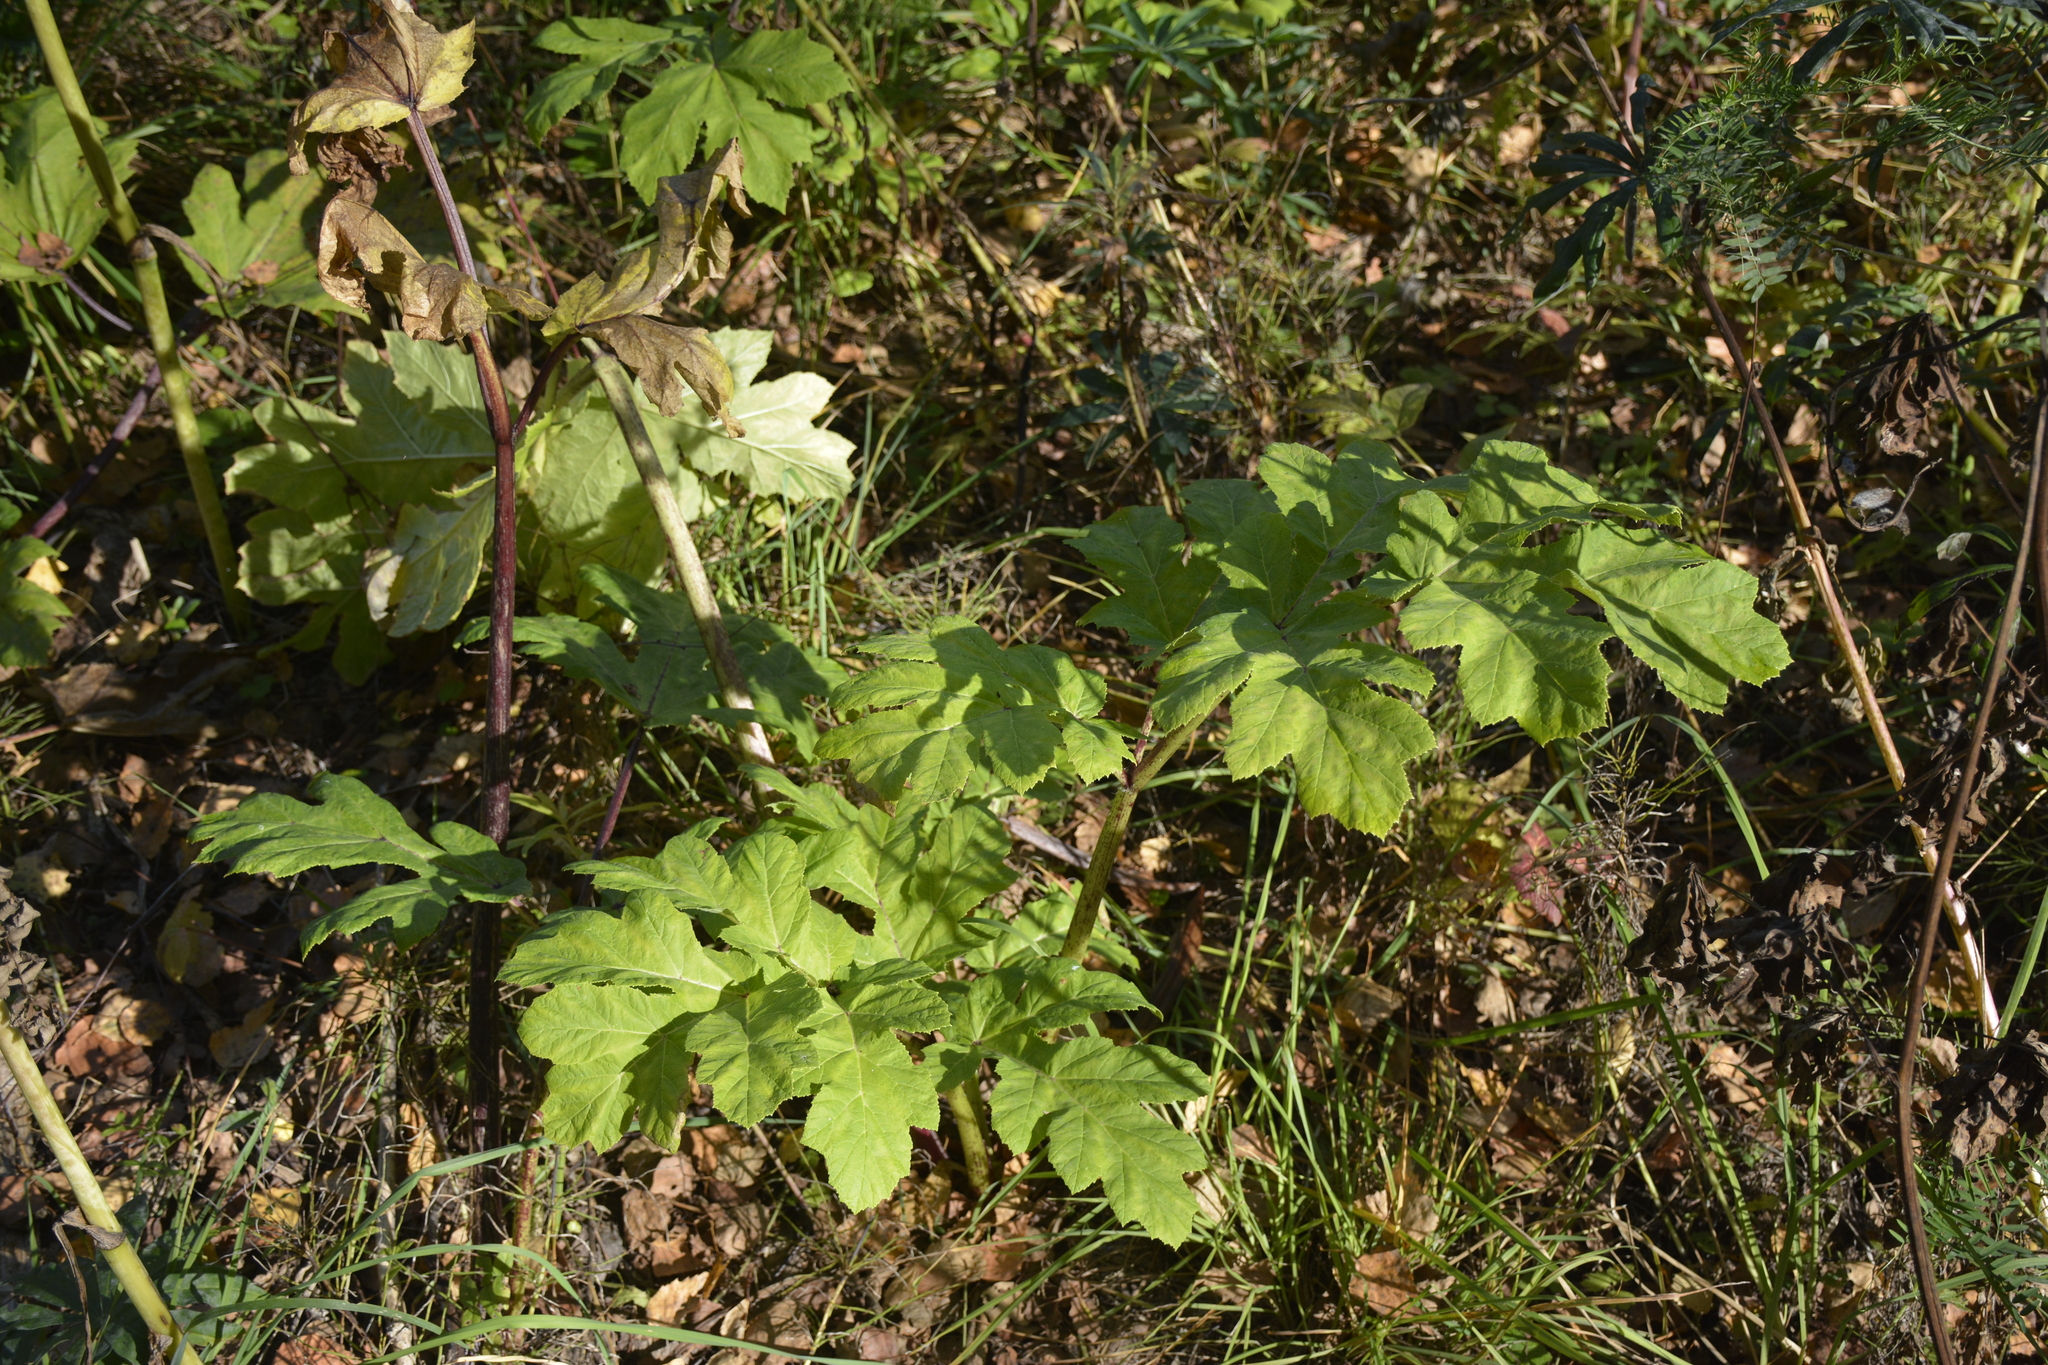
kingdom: Plantae
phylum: Tracheophyta
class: Magnoliopsida
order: Apiales
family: Apiaceae
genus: Heracleum
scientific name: Heracleum sosnowskyi
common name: Sosnowsky's hogweed
